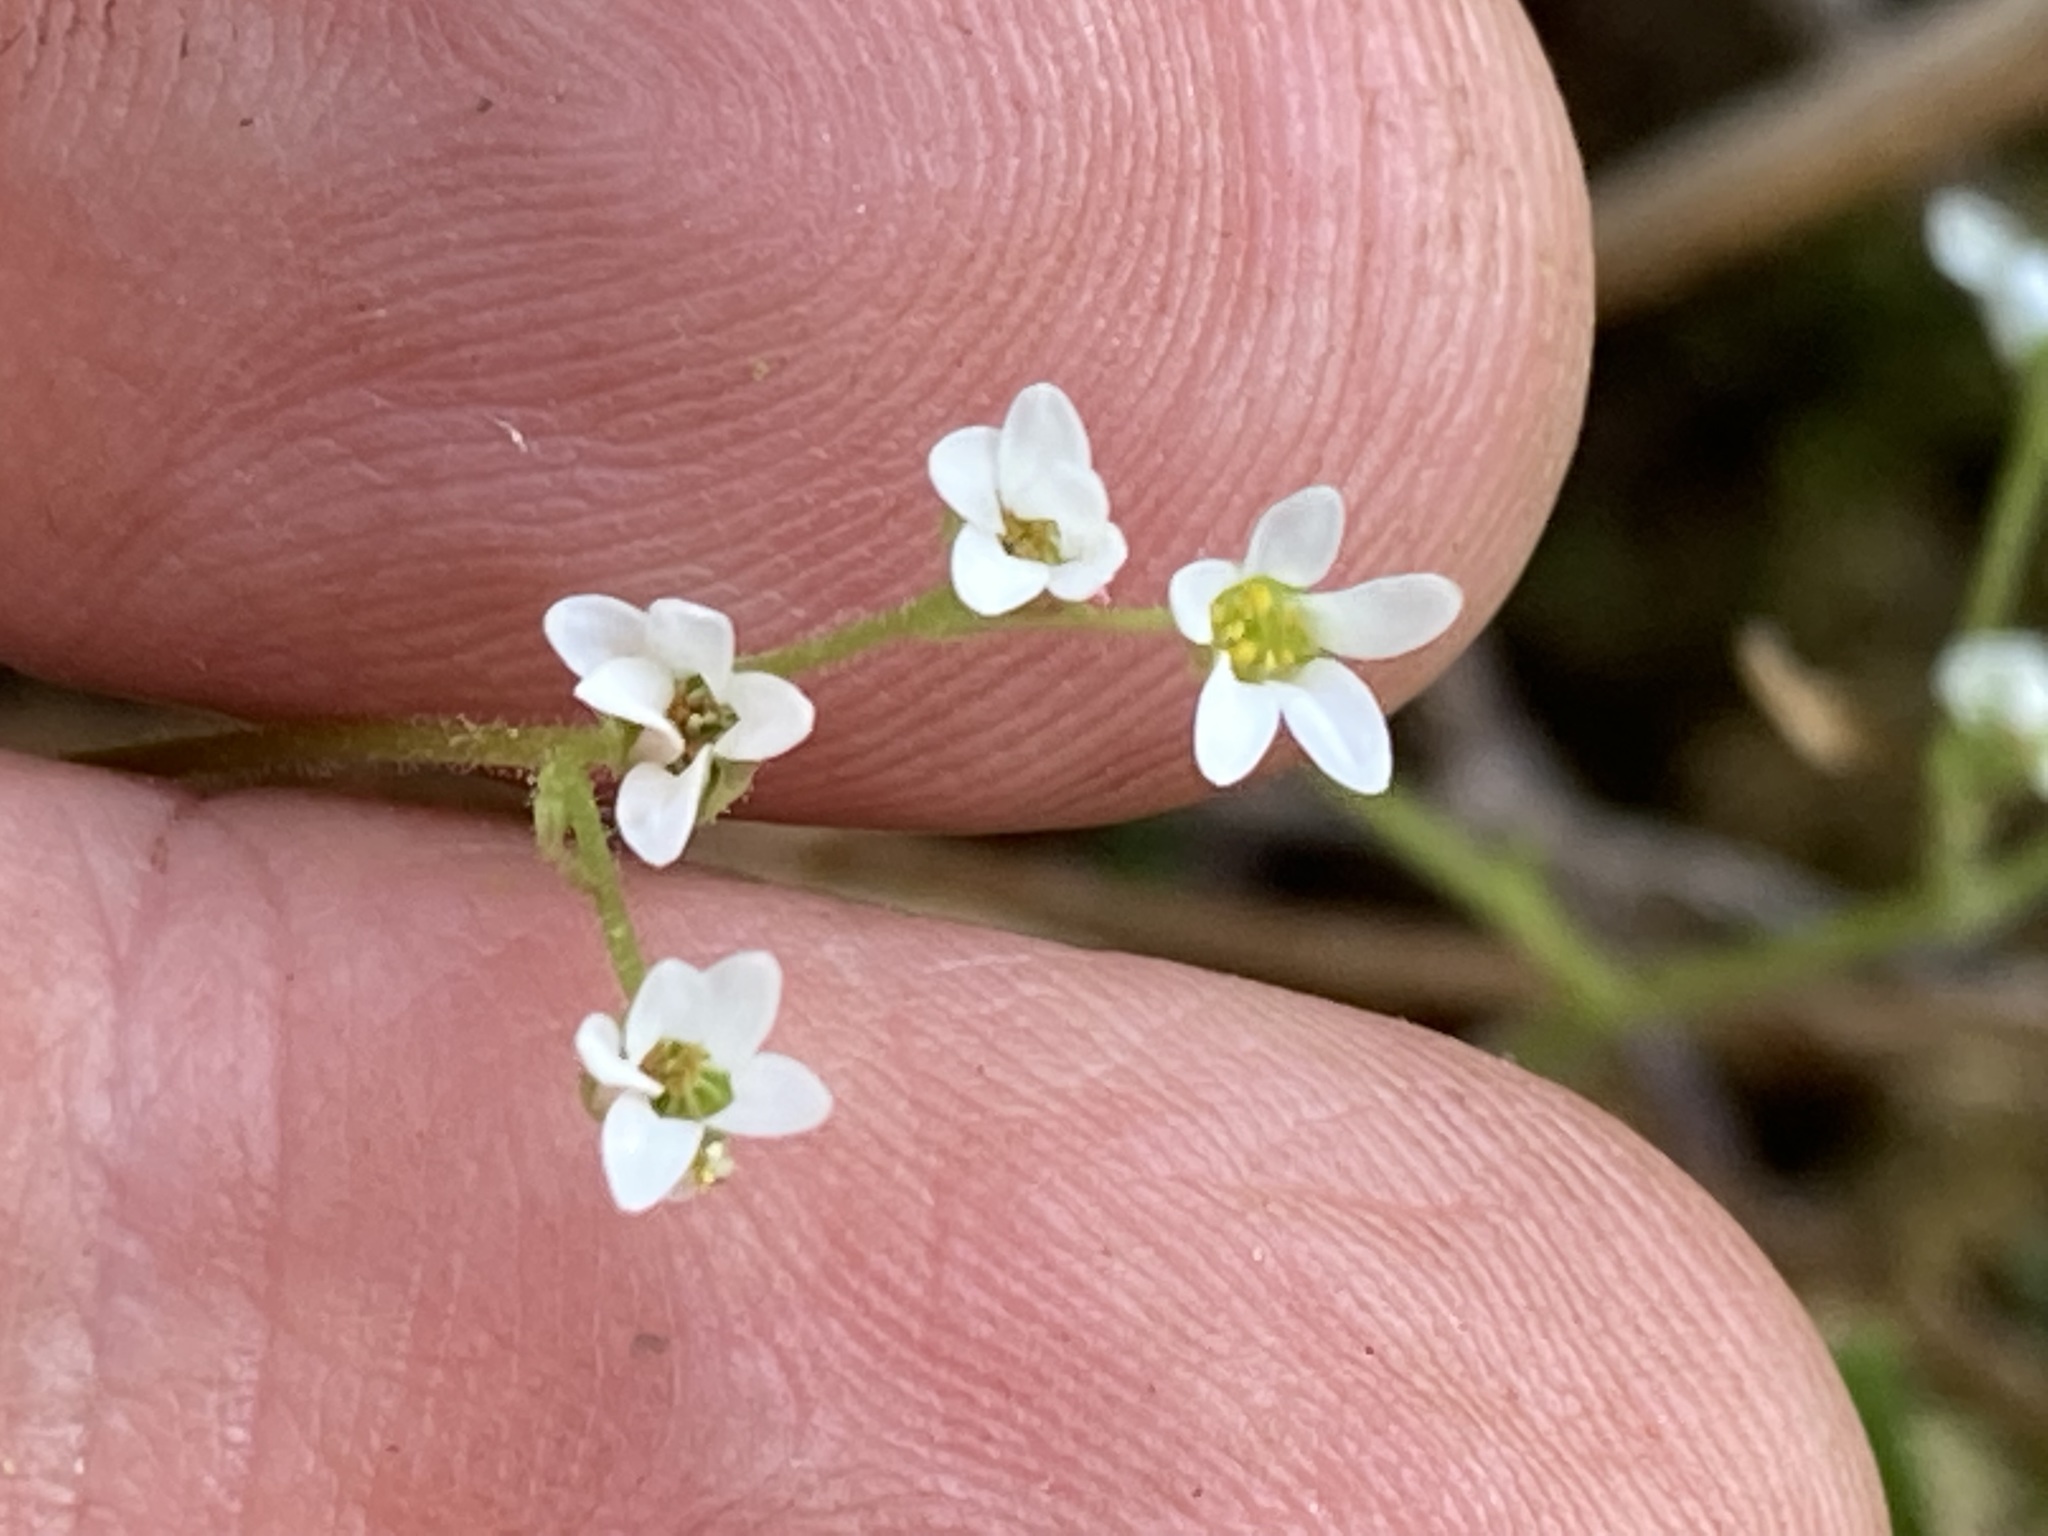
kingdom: Plantae
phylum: Tracheophyta
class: Magnoliopsida
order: Saxifragales
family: Saxifragaceae
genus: Micranthes
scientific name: Micranthes virginiensis
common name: Early saxifrage
